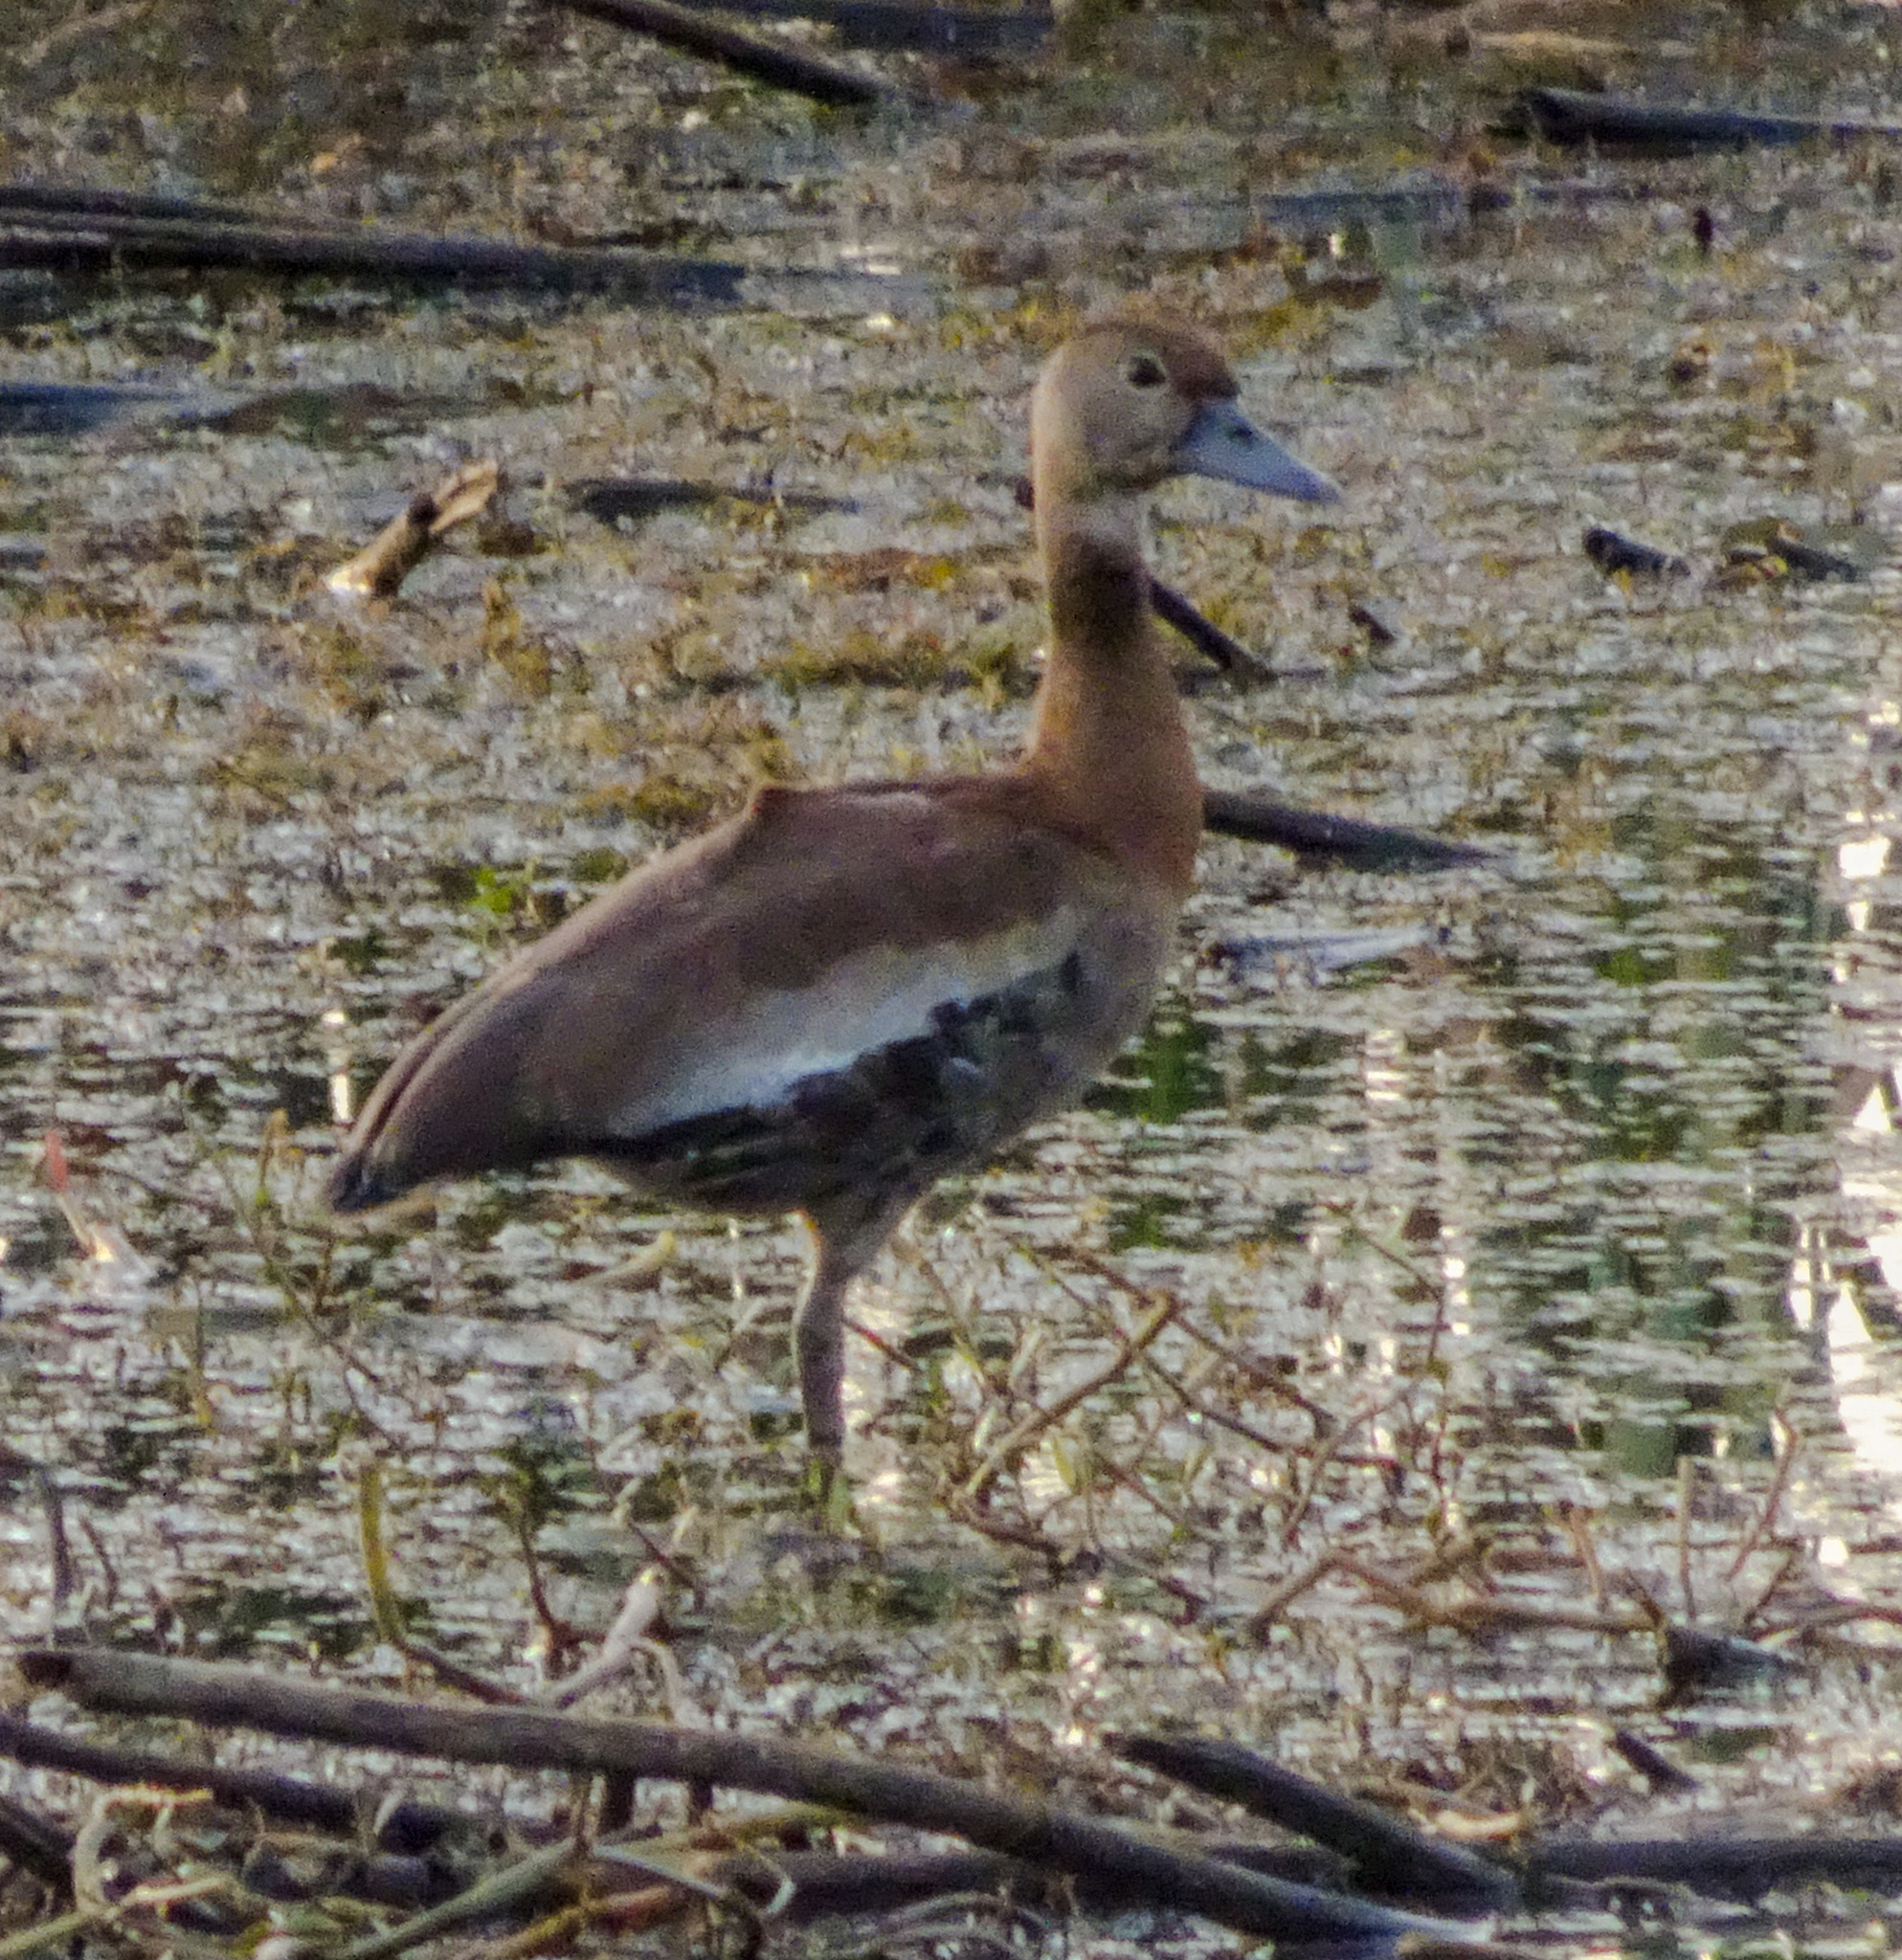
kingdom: Animalia
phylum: Chordata
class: Aves
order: Anseriformes
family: Anatidae
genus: Dendrocygna
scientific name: Dendrocygna autumnalis
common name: Black-bellied whistling duck
